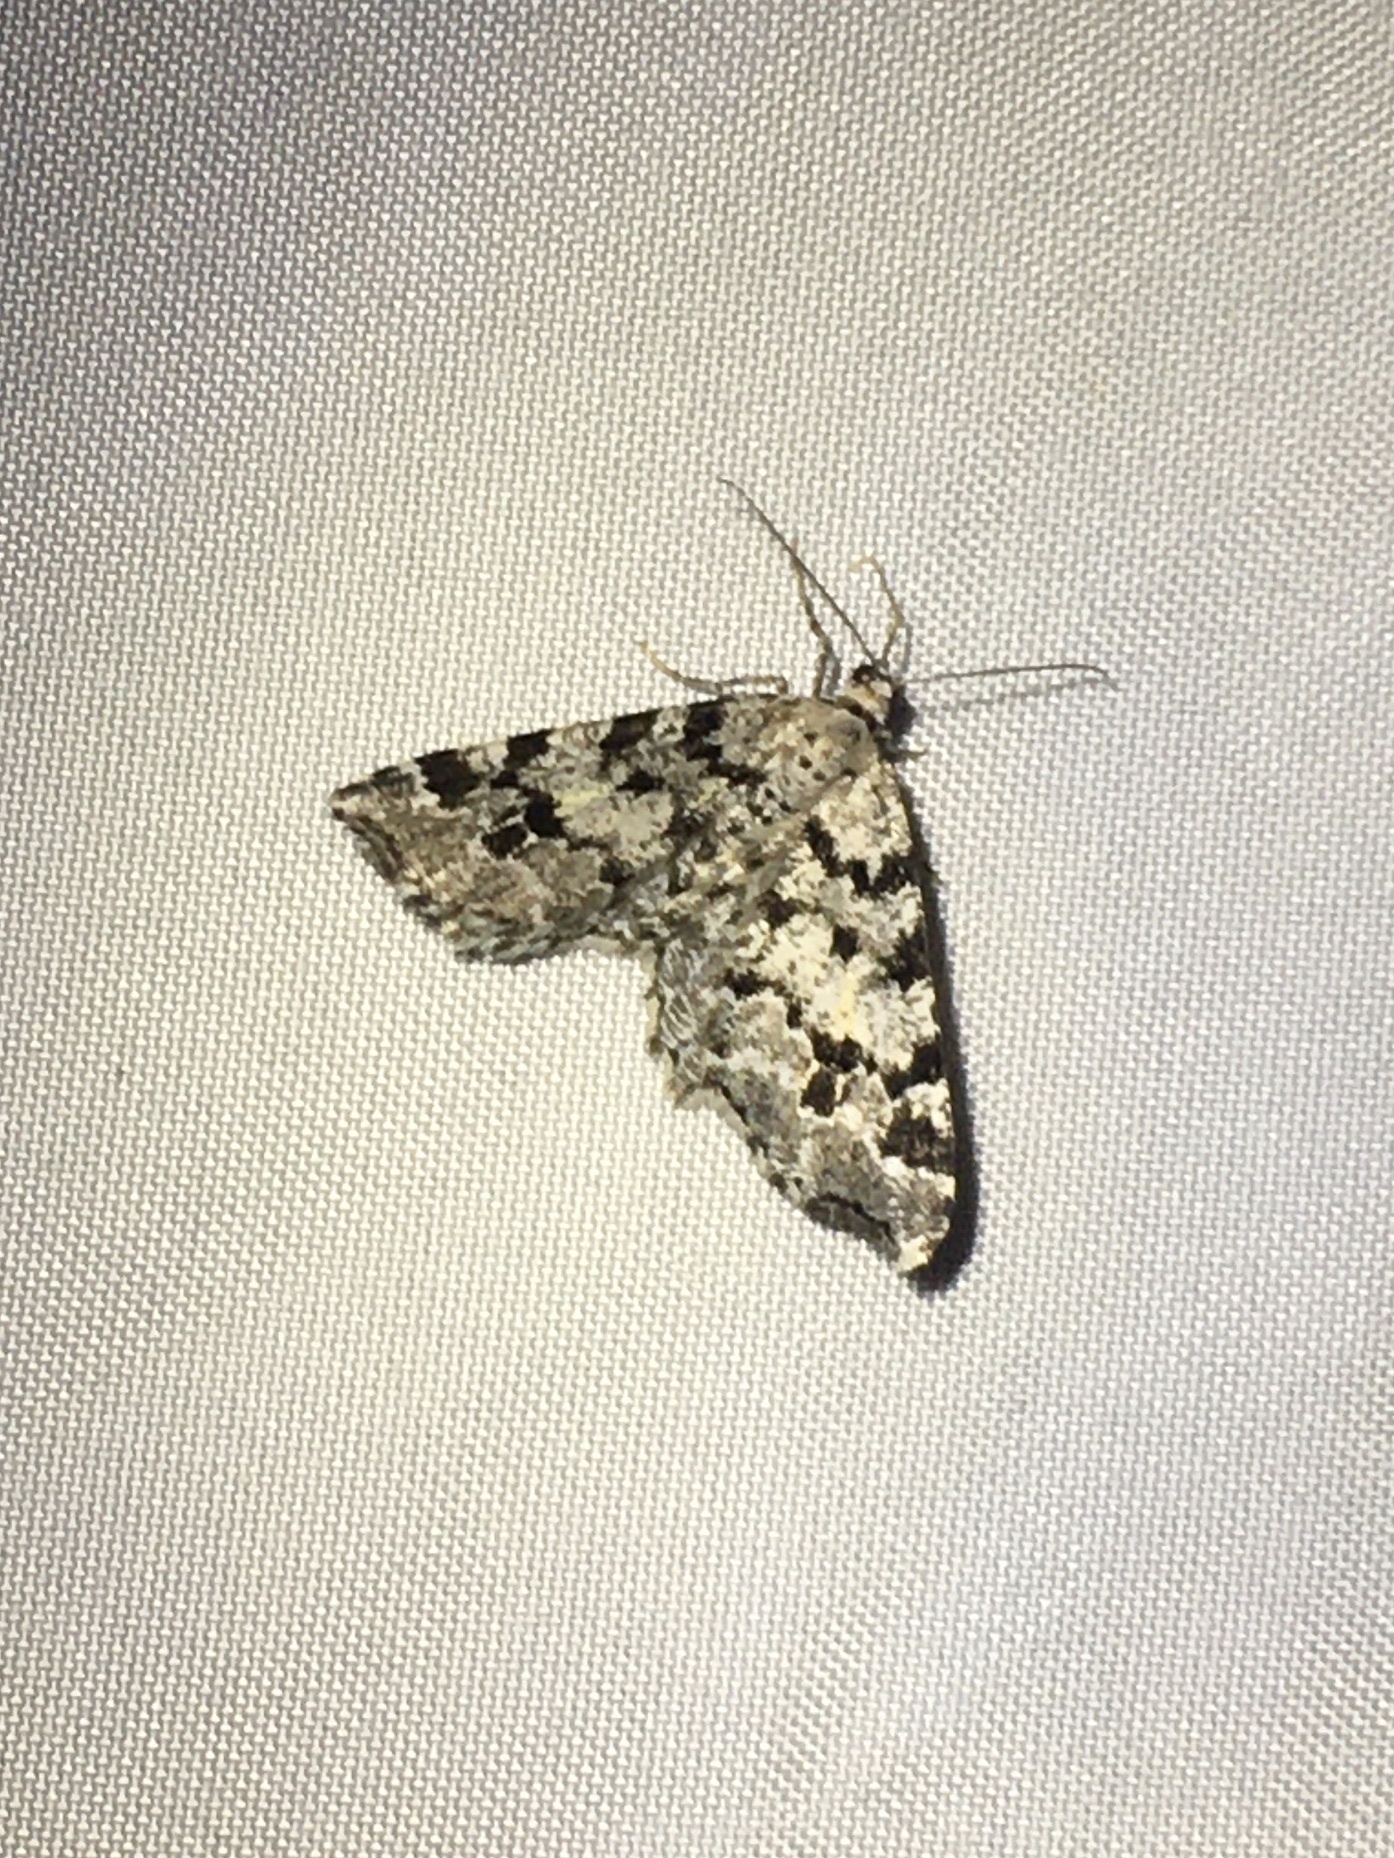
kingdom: Animalia
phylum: Arthropoda
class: Insecta
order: Lepidoptera
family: Geometridae
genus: Macaria
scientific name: Macaria oweni
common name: Owen's angle
